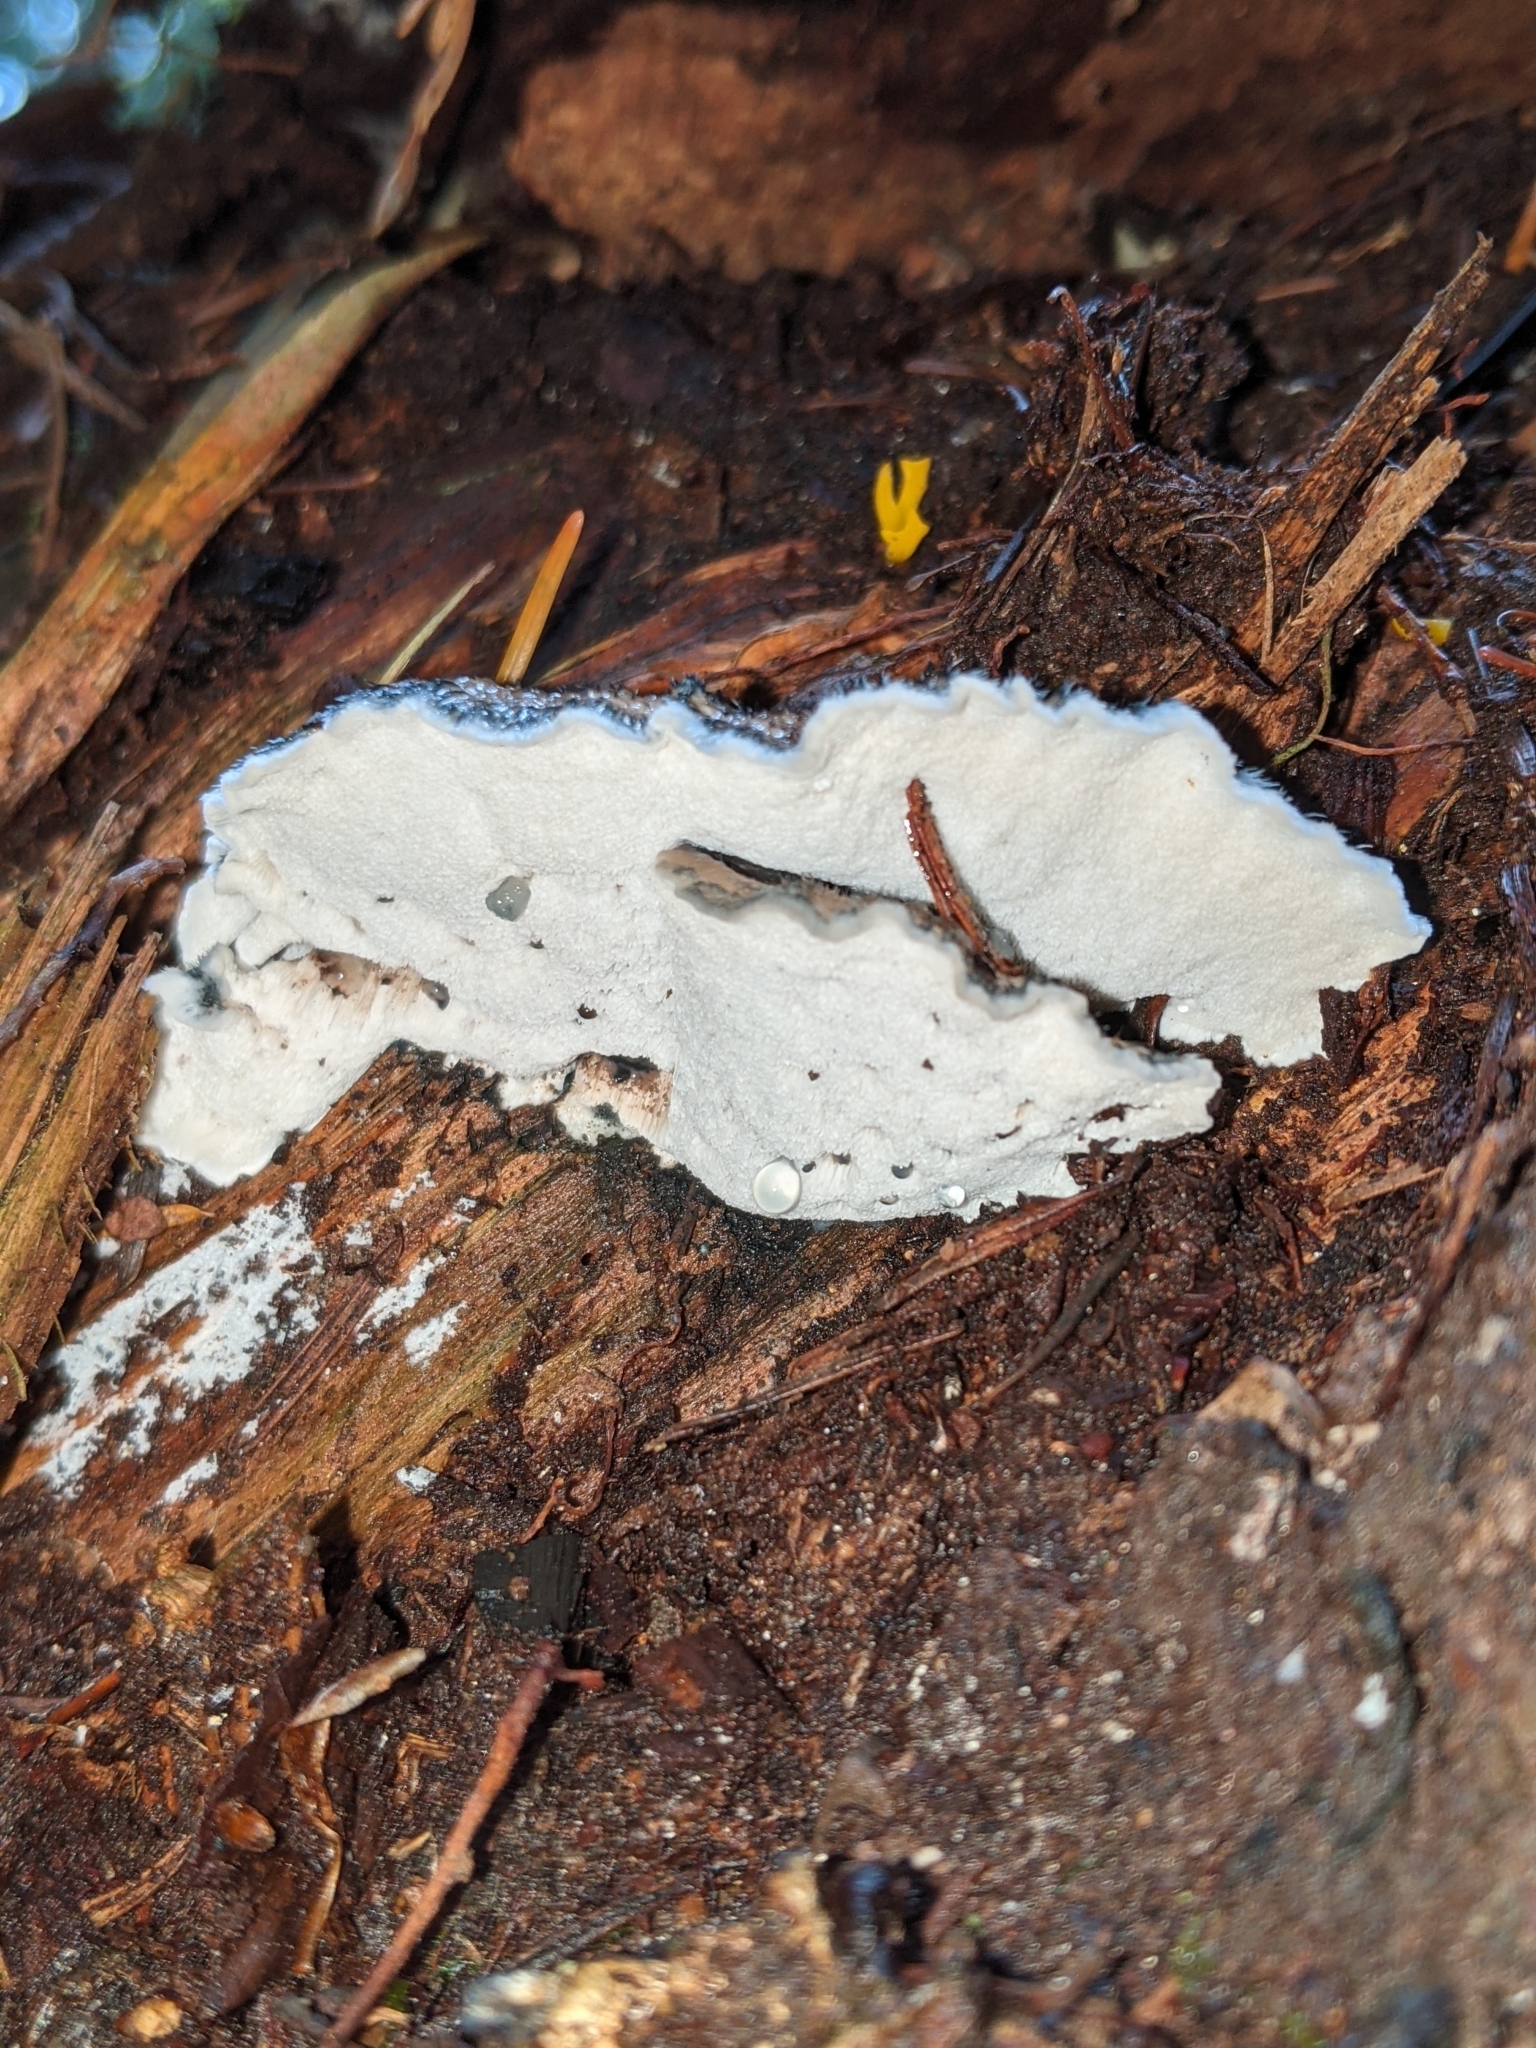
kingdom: Fungi
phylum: Basidiomycota
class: Agaricomycetes
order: Polyporales
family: Polyporaceae
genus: Cyanosporus
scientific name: Cyanosporus caesius
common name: Blue cheese polypore
